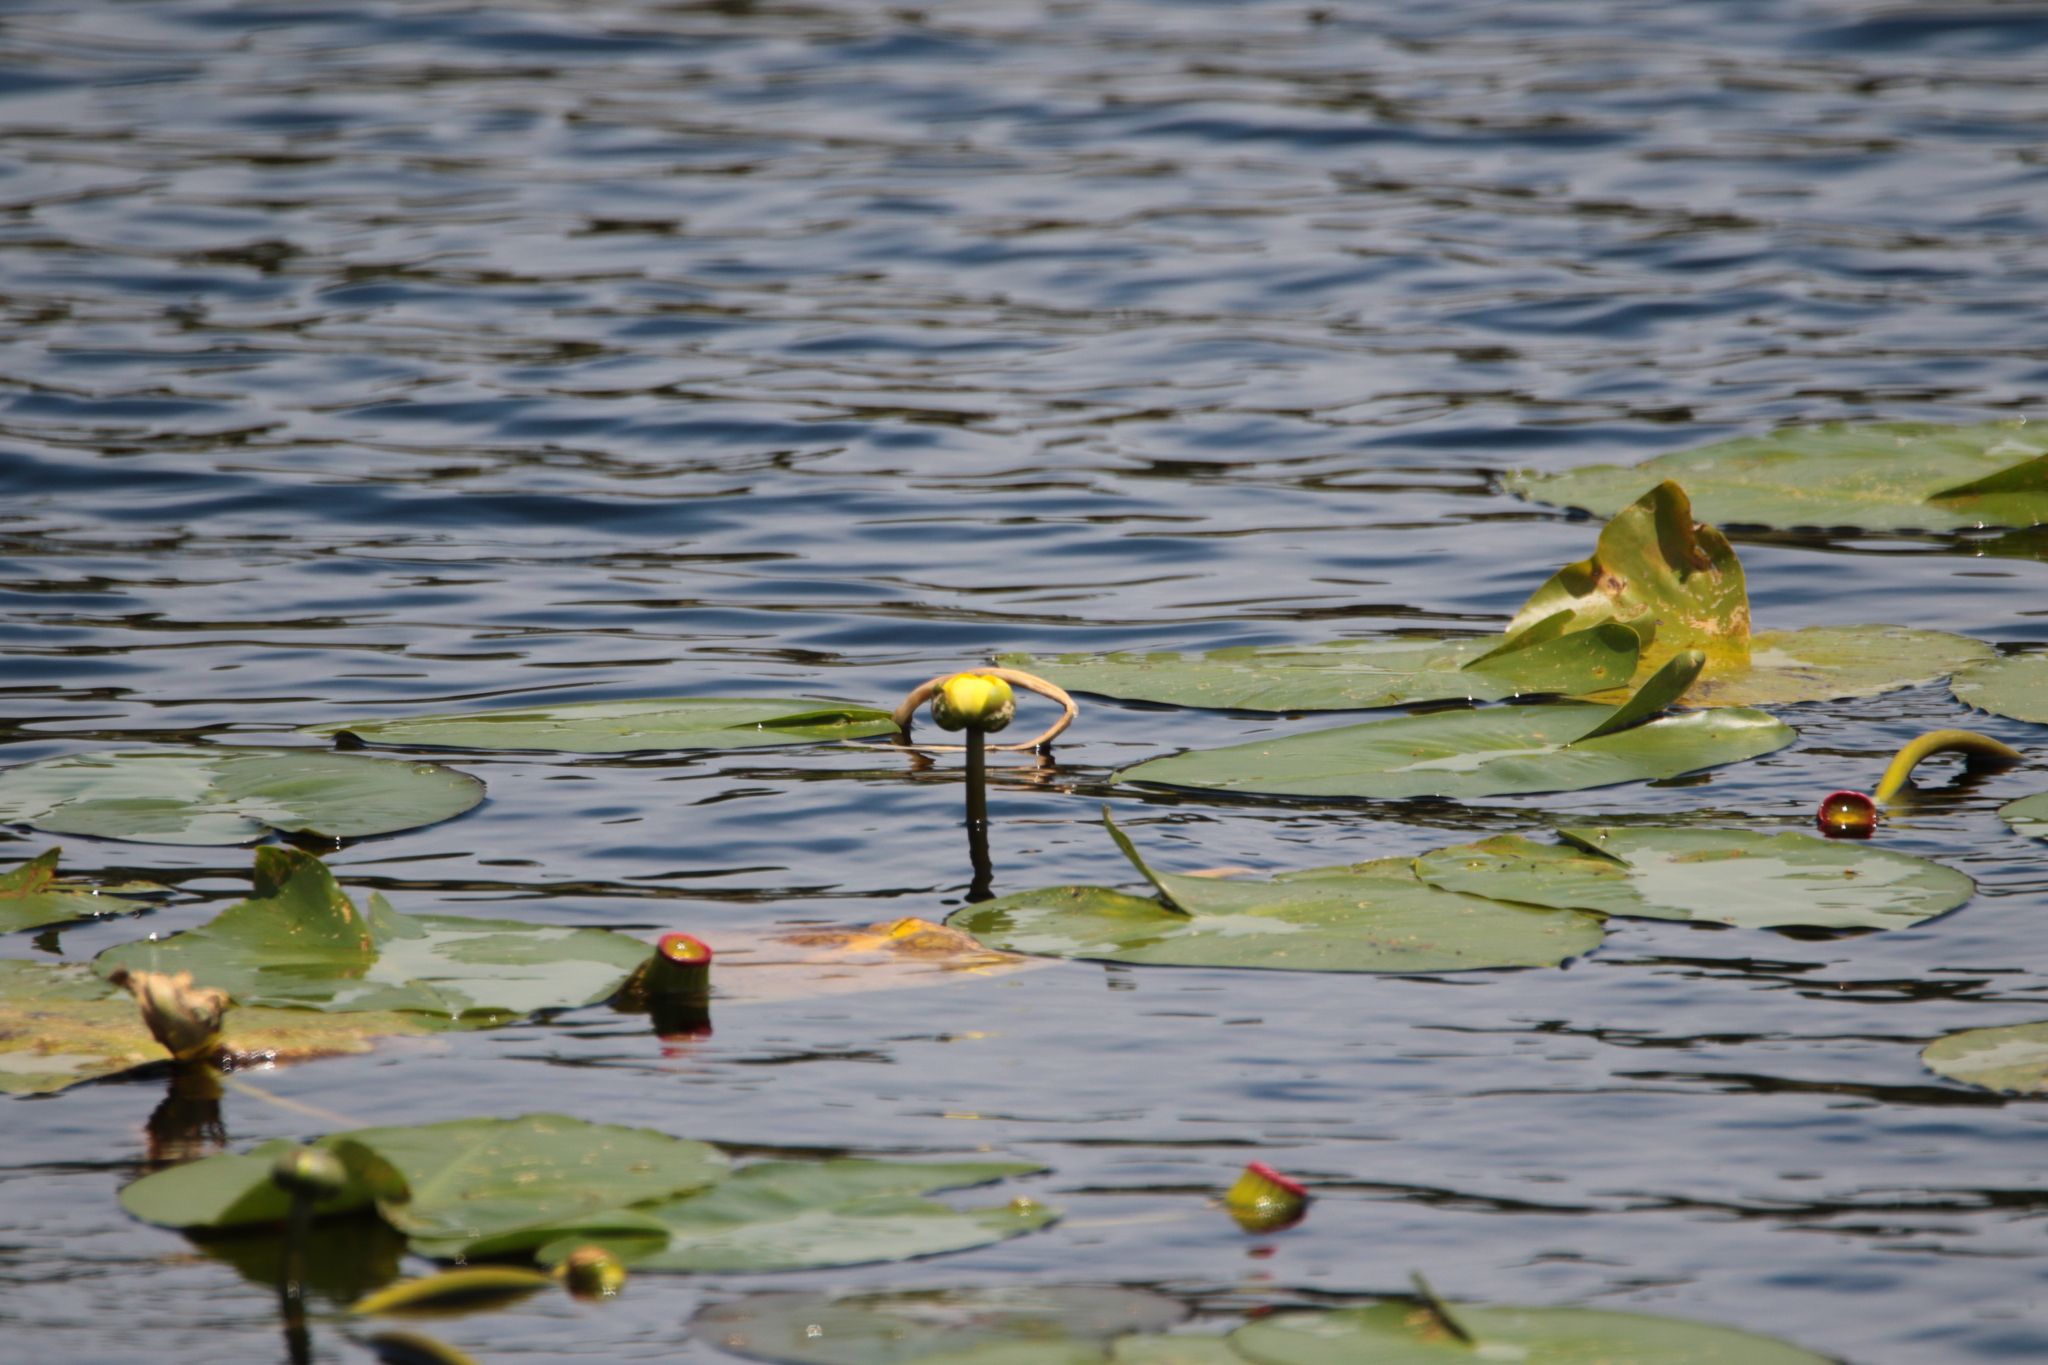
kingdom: Plantae
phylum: Tracheophyta
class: Magnoliopsida
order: Nymphaeales
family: Nymphaeaceae
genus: Nuphar
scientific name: Nuphar advena
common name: Spatter-dock
